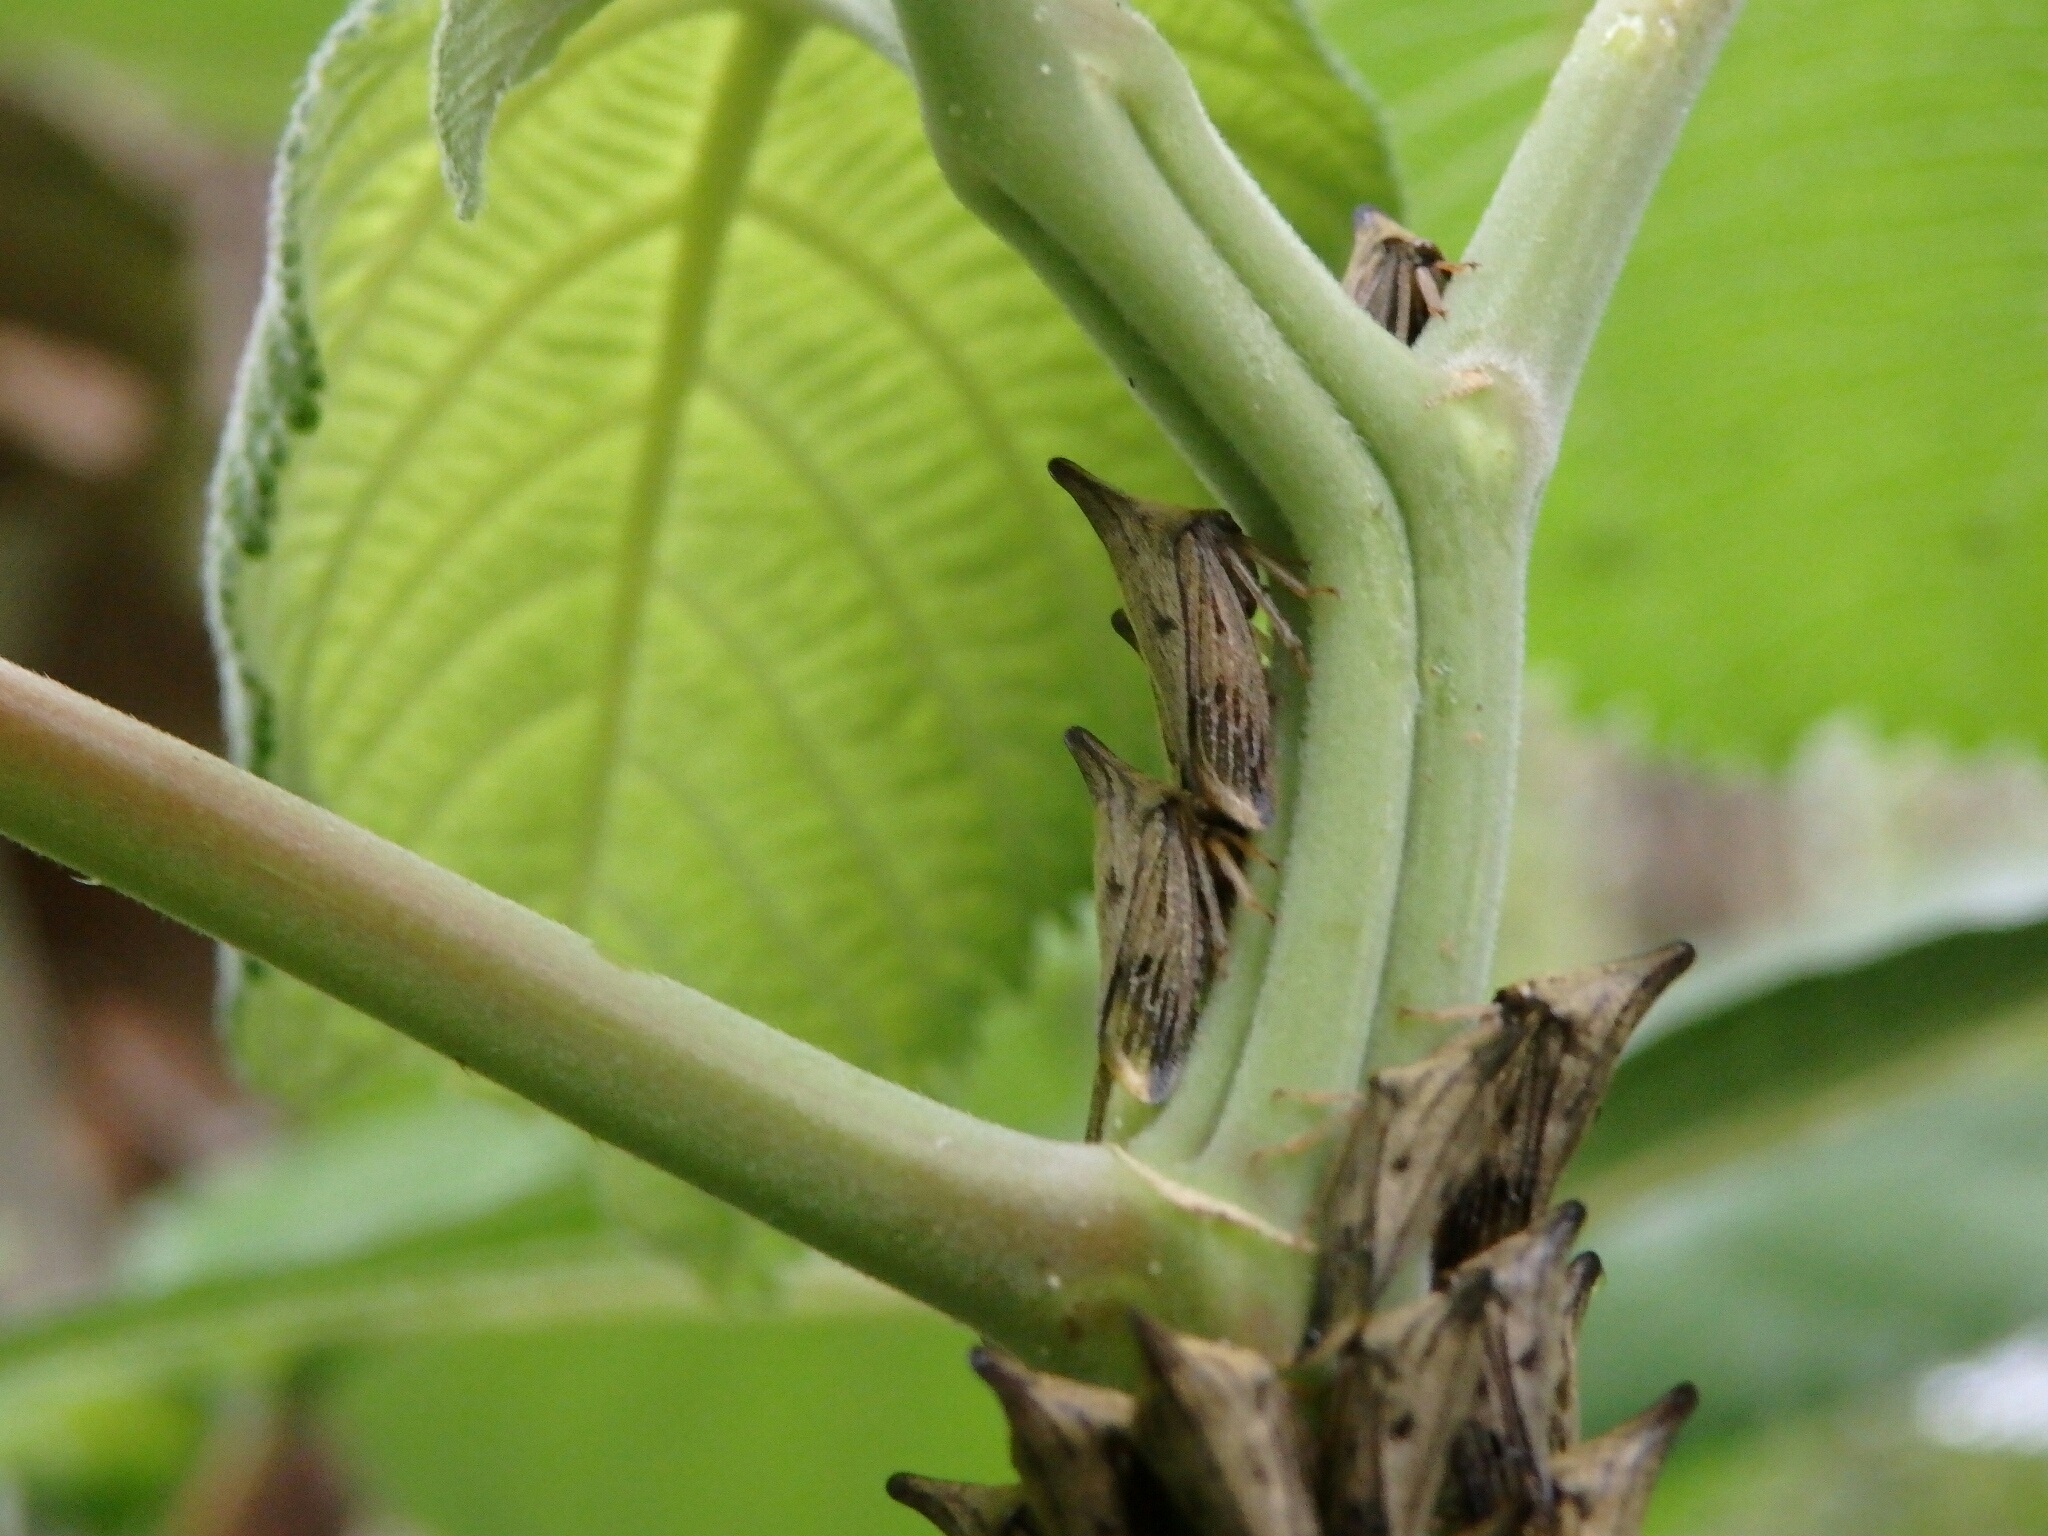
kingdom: Animalia
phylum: Arthropoda
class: Insecta
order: Hemiptera
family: Membracidae
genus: Aconophora
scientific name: Aconophora compressa
